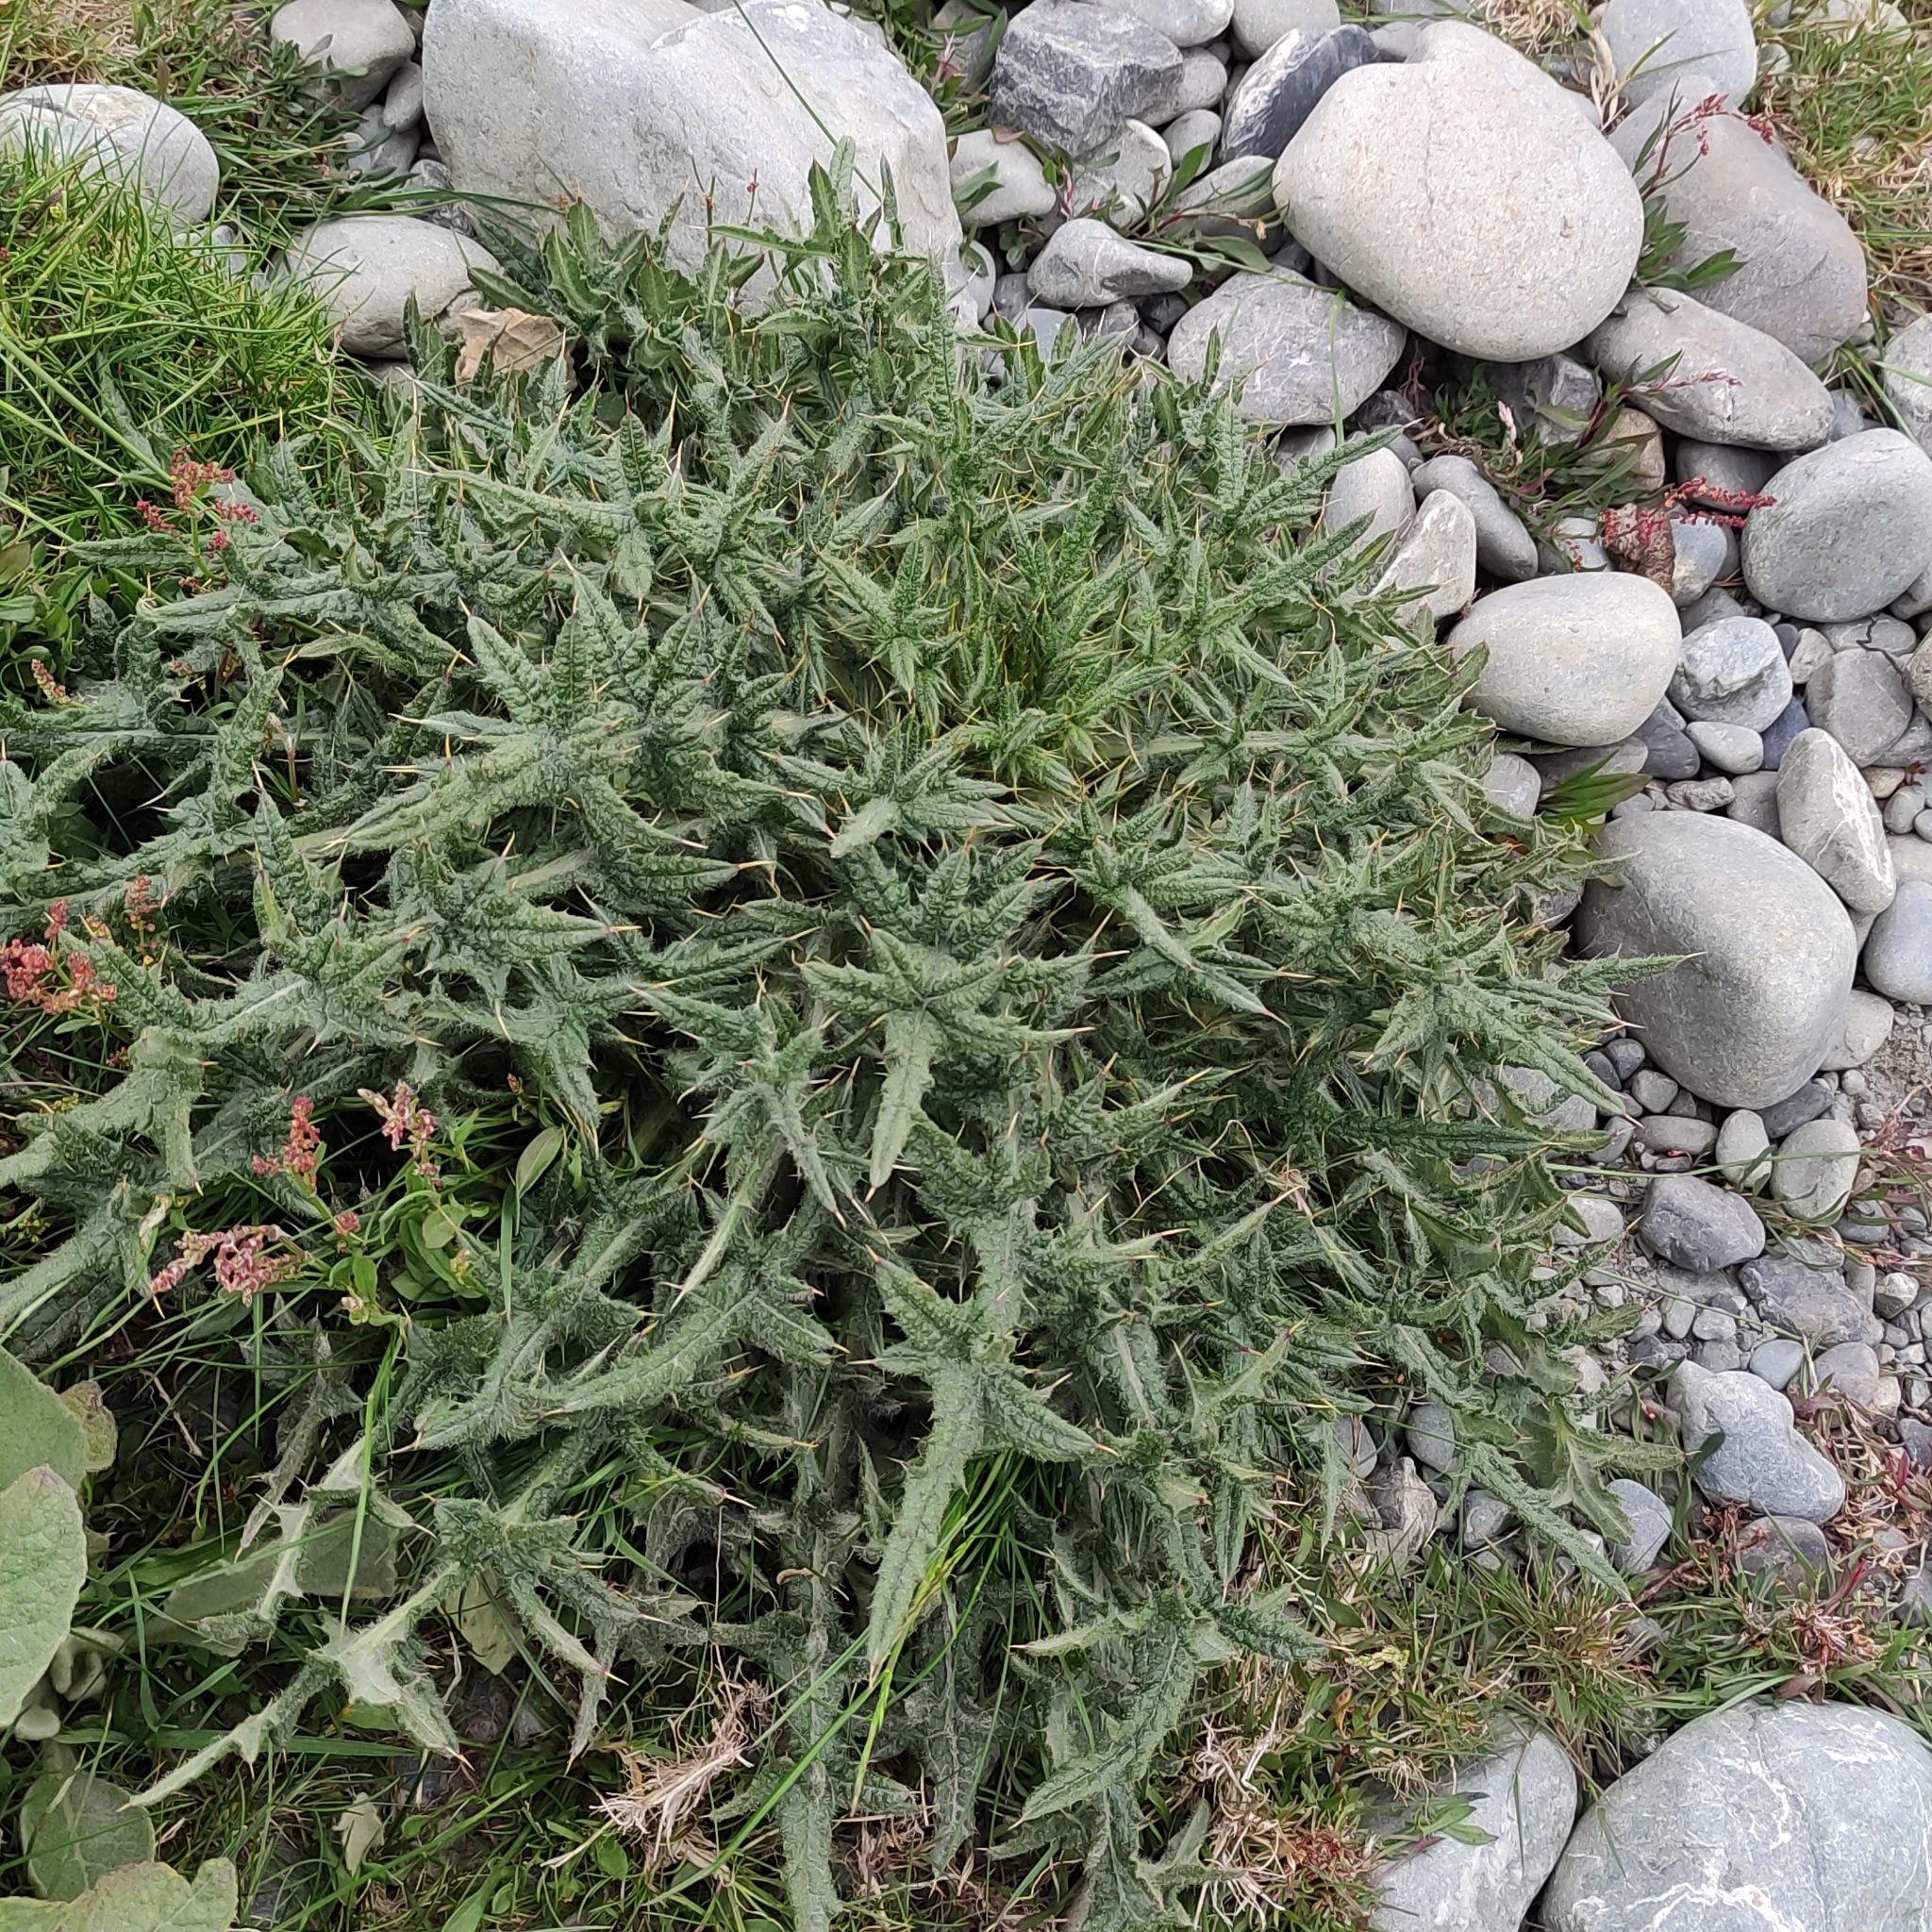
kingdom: Plantae
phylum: Tracheophyta
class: Magnoliopsida
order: Asterales
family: Asteraceae
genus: Cirsium
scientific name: Cirsium vulgare
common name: Bull thistle
